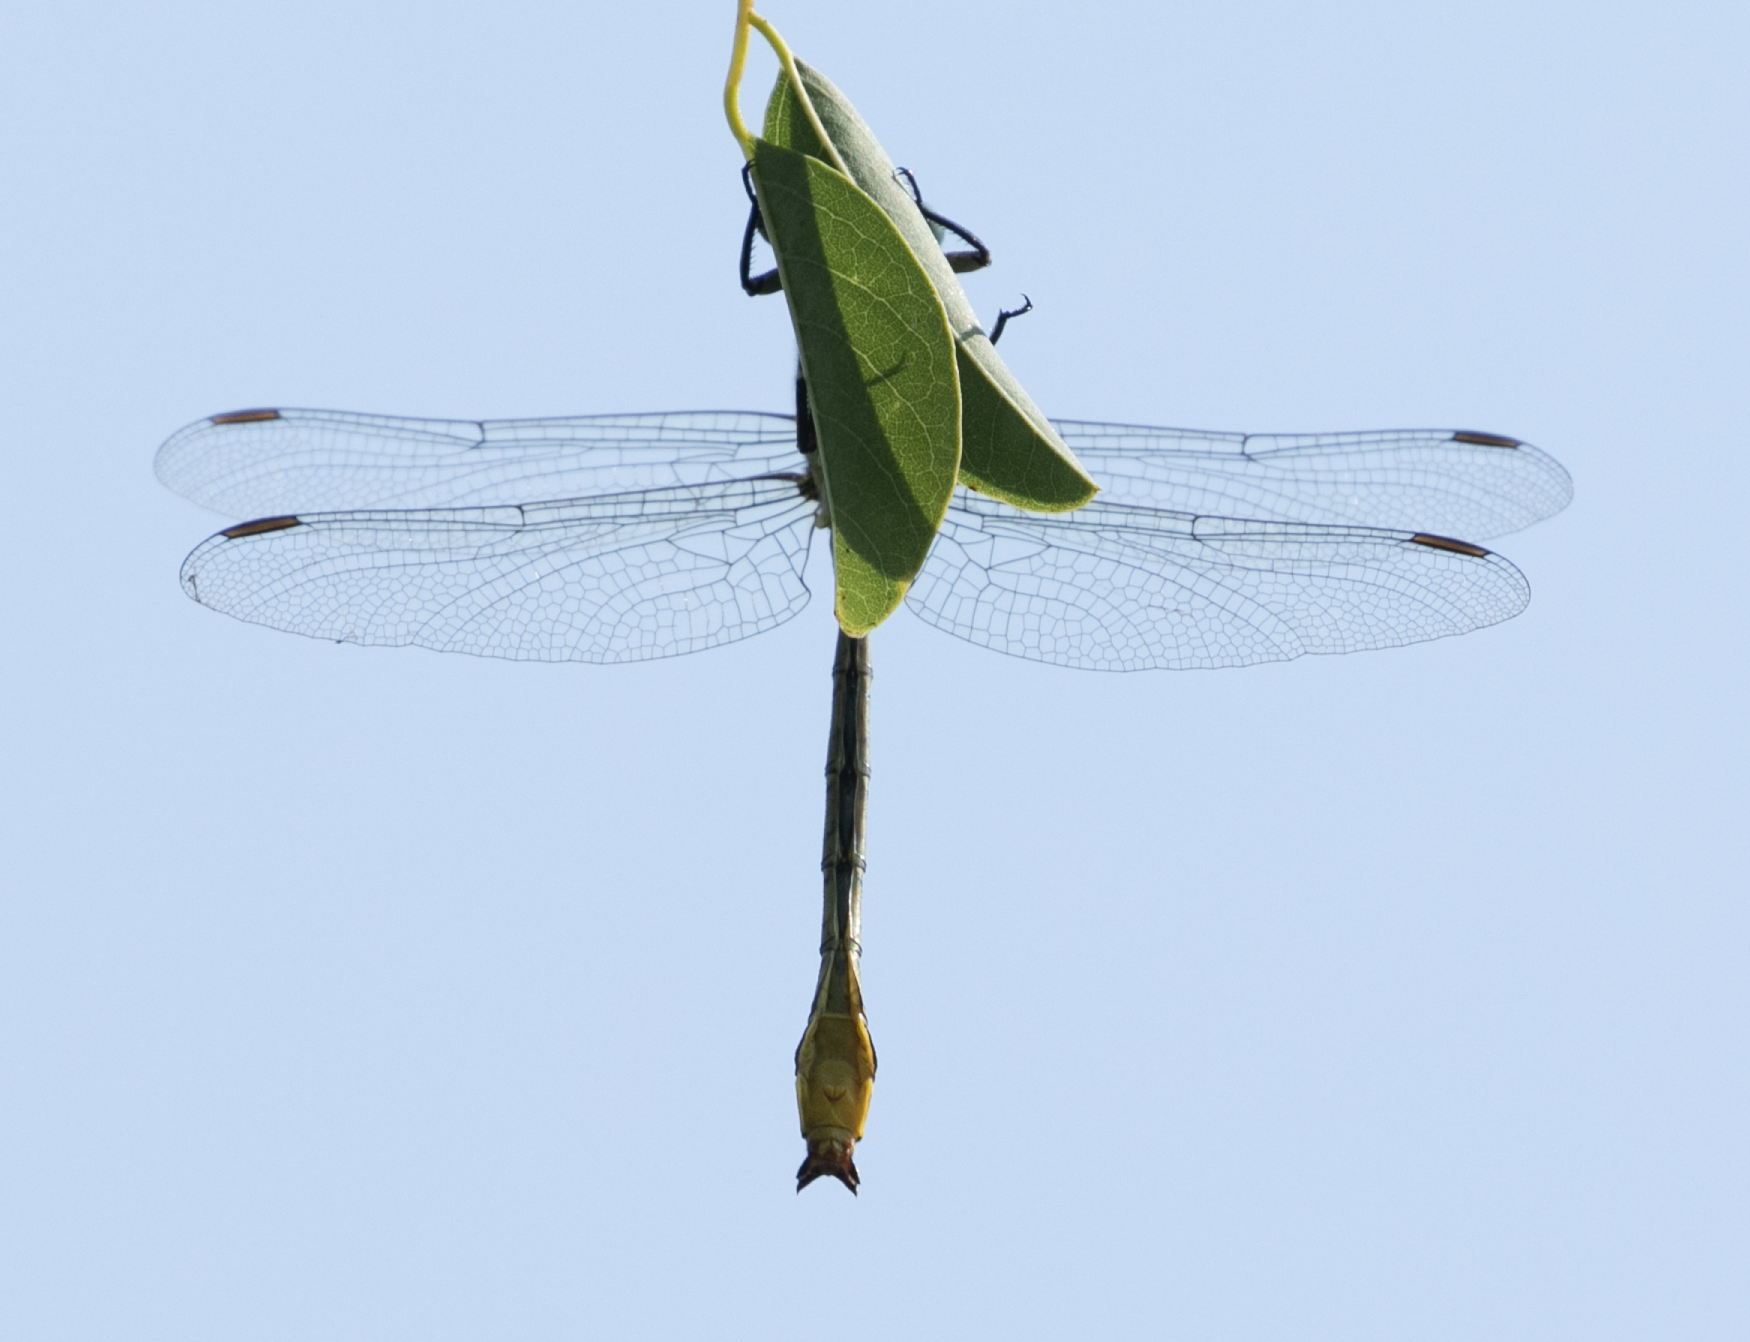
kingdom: Animalia
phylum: Arthropoda
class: Insecta
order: Odonata
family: Gomphidae
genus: Stylurus
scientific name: Stylurus flavipes
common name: River clubtail
